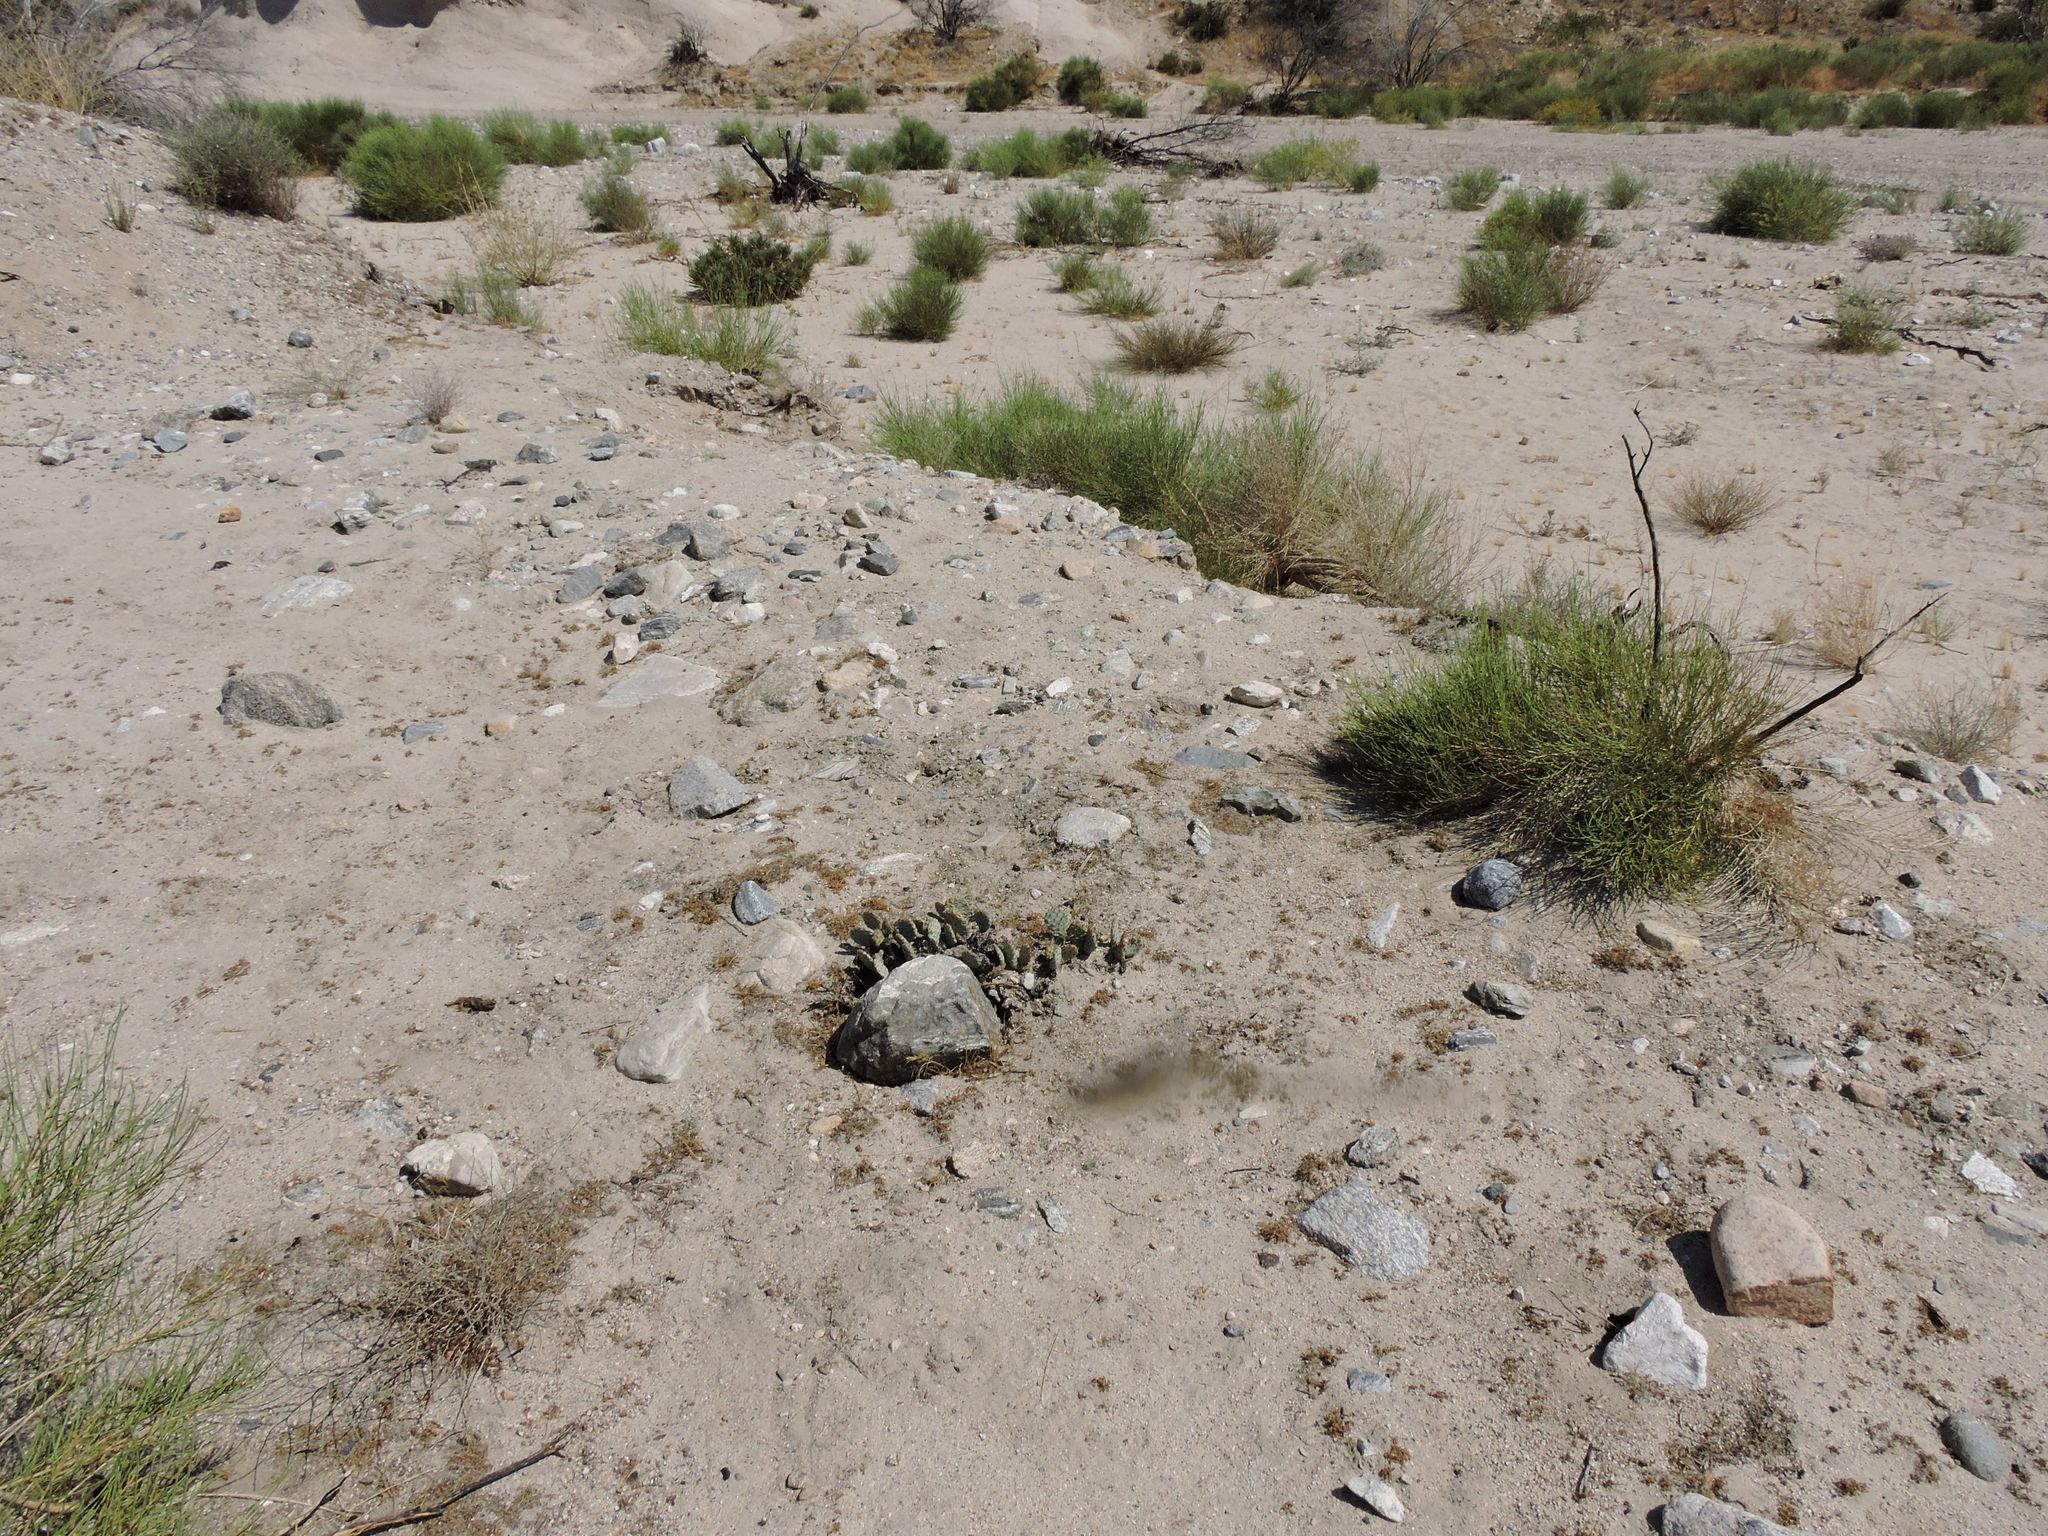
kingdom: Plantae
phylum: Tracheophyta
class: Magnoliopsida
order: Caryophyllales
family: Cactaceae
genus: Opuntia
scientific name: Opuntia basilaris
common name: Beavertail prickly-pear
